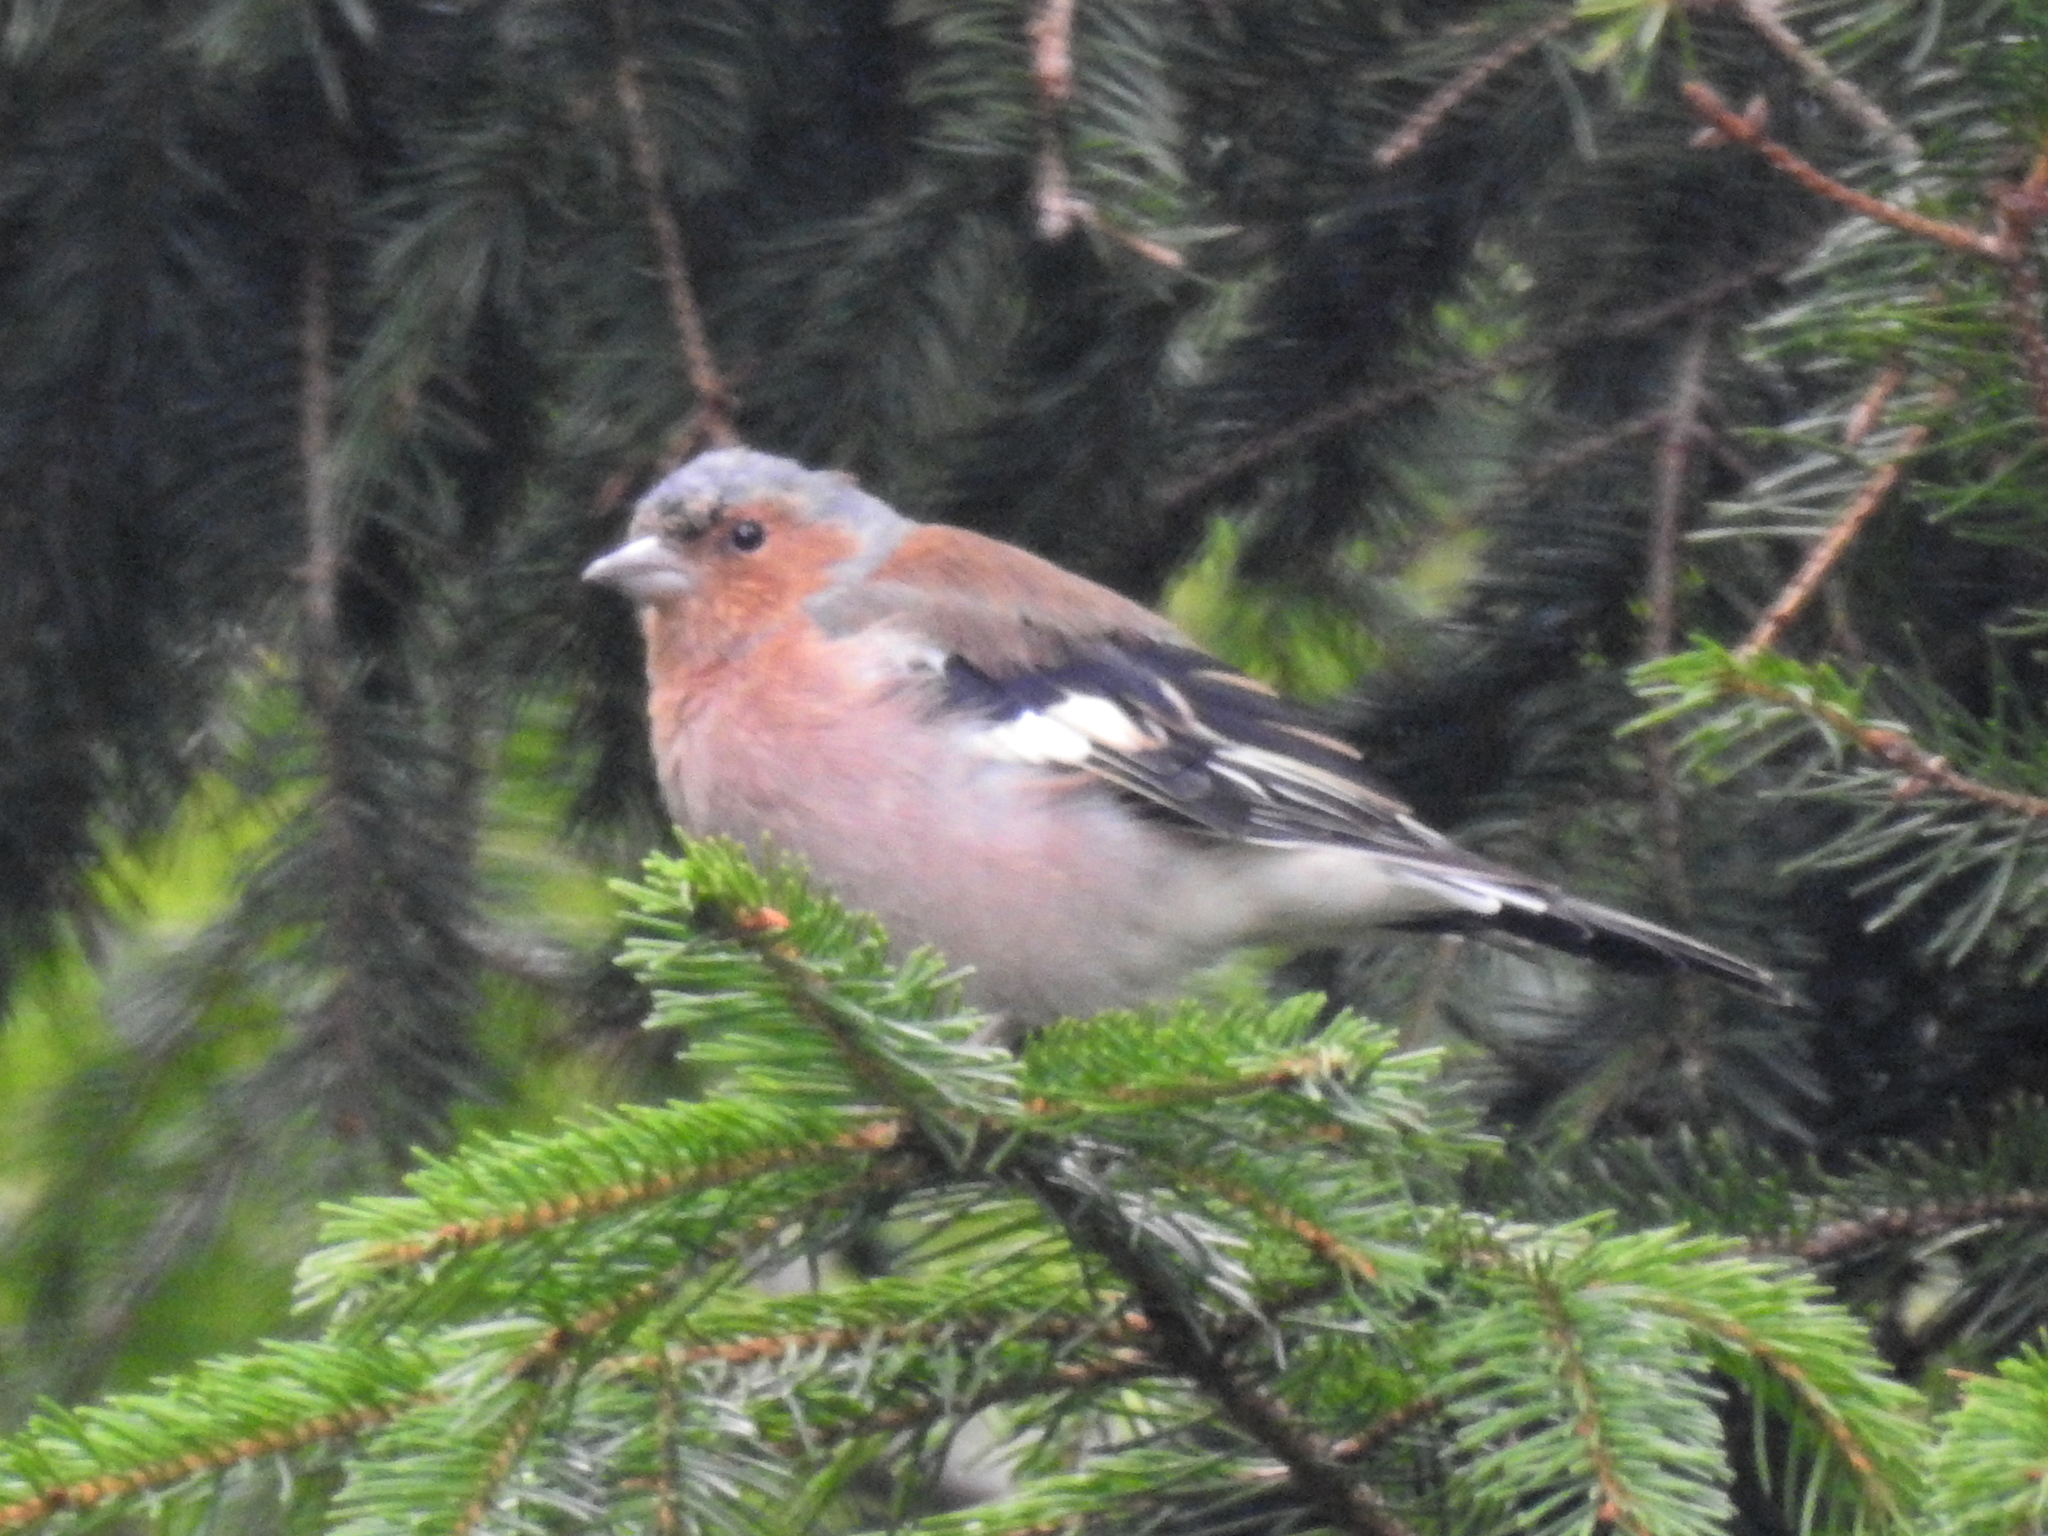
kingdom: Animalia
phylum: Chordata
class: Aves
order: Passeriformes
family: Fringillidae
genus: Fringilla
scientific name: Fringilla coelebs
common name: Common chaffinch
